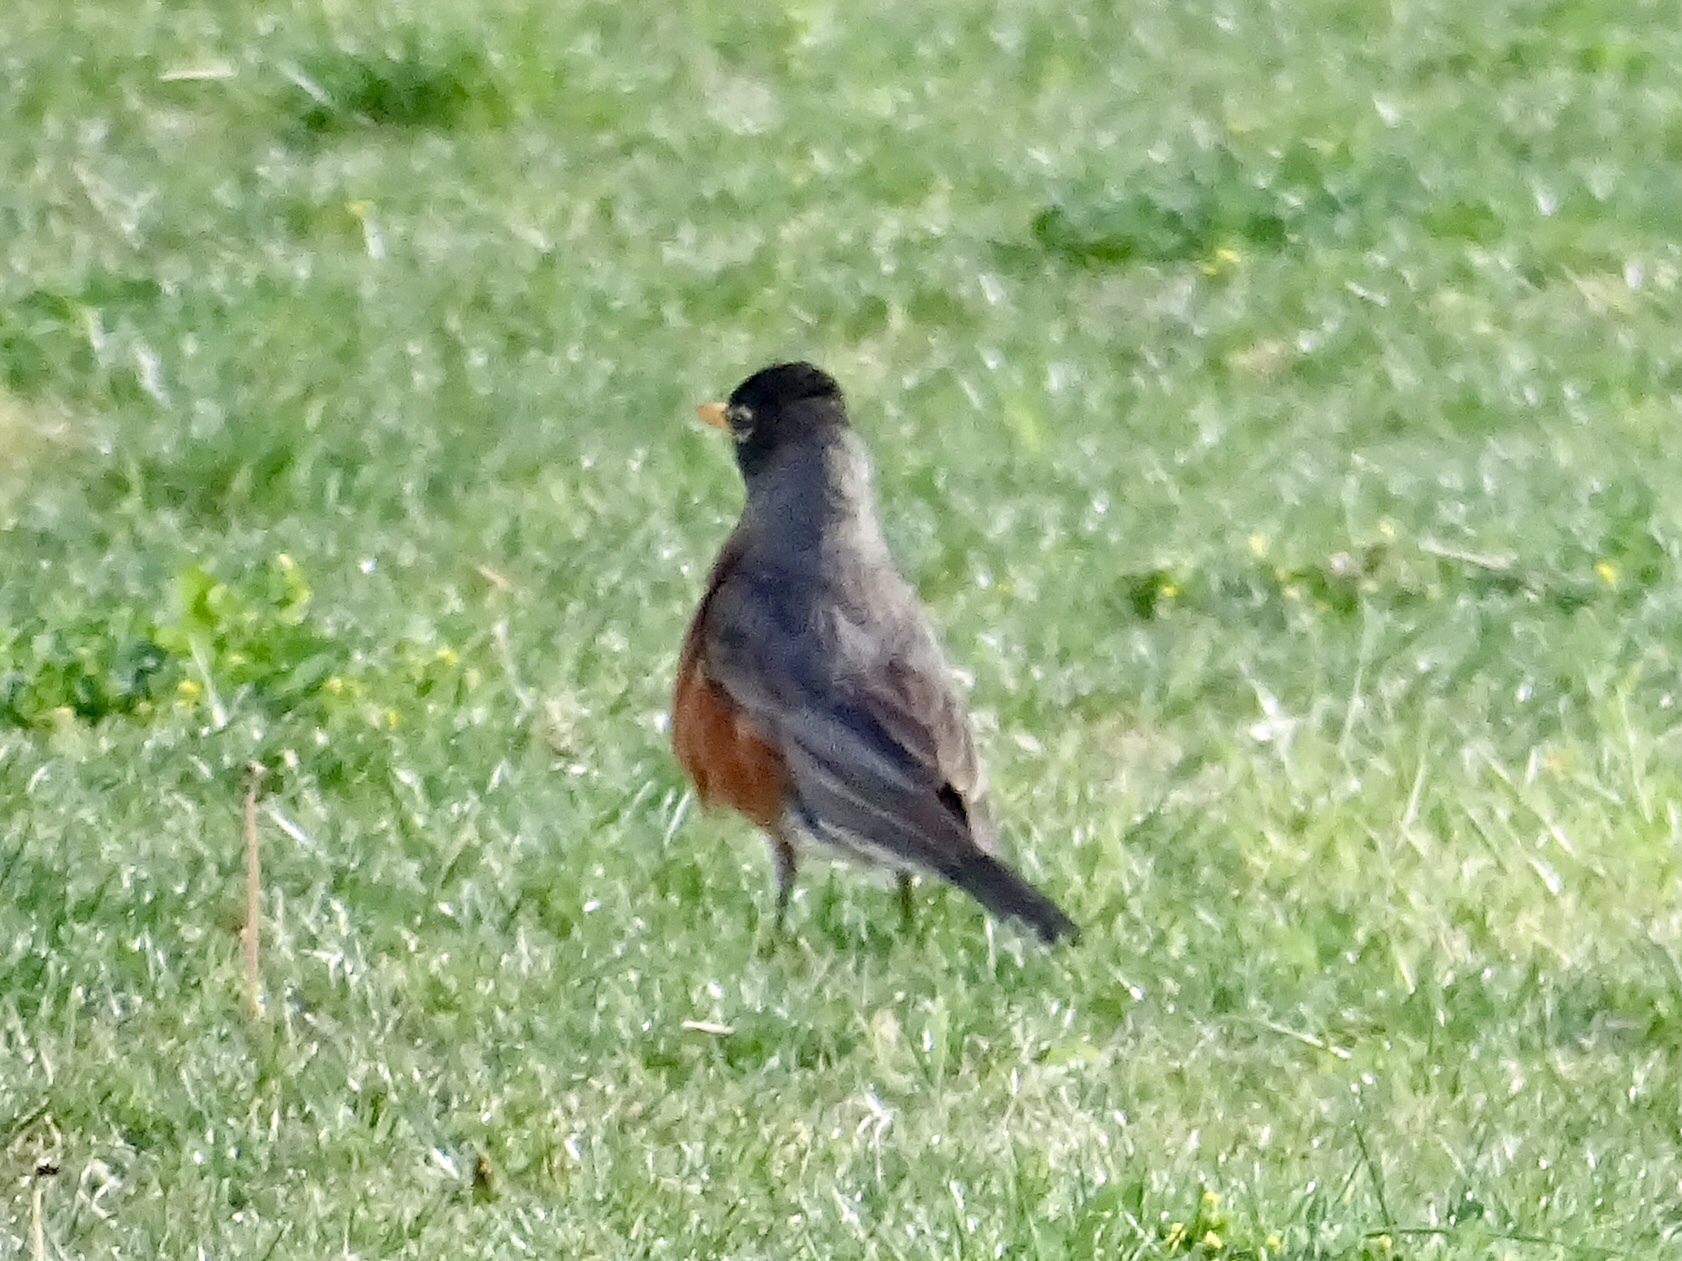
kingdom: Animalia
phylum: Chordata
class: Aves
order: Passeriformes
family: Turdidae
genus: Turdus
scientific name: Turdus migratorius
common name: American robin
